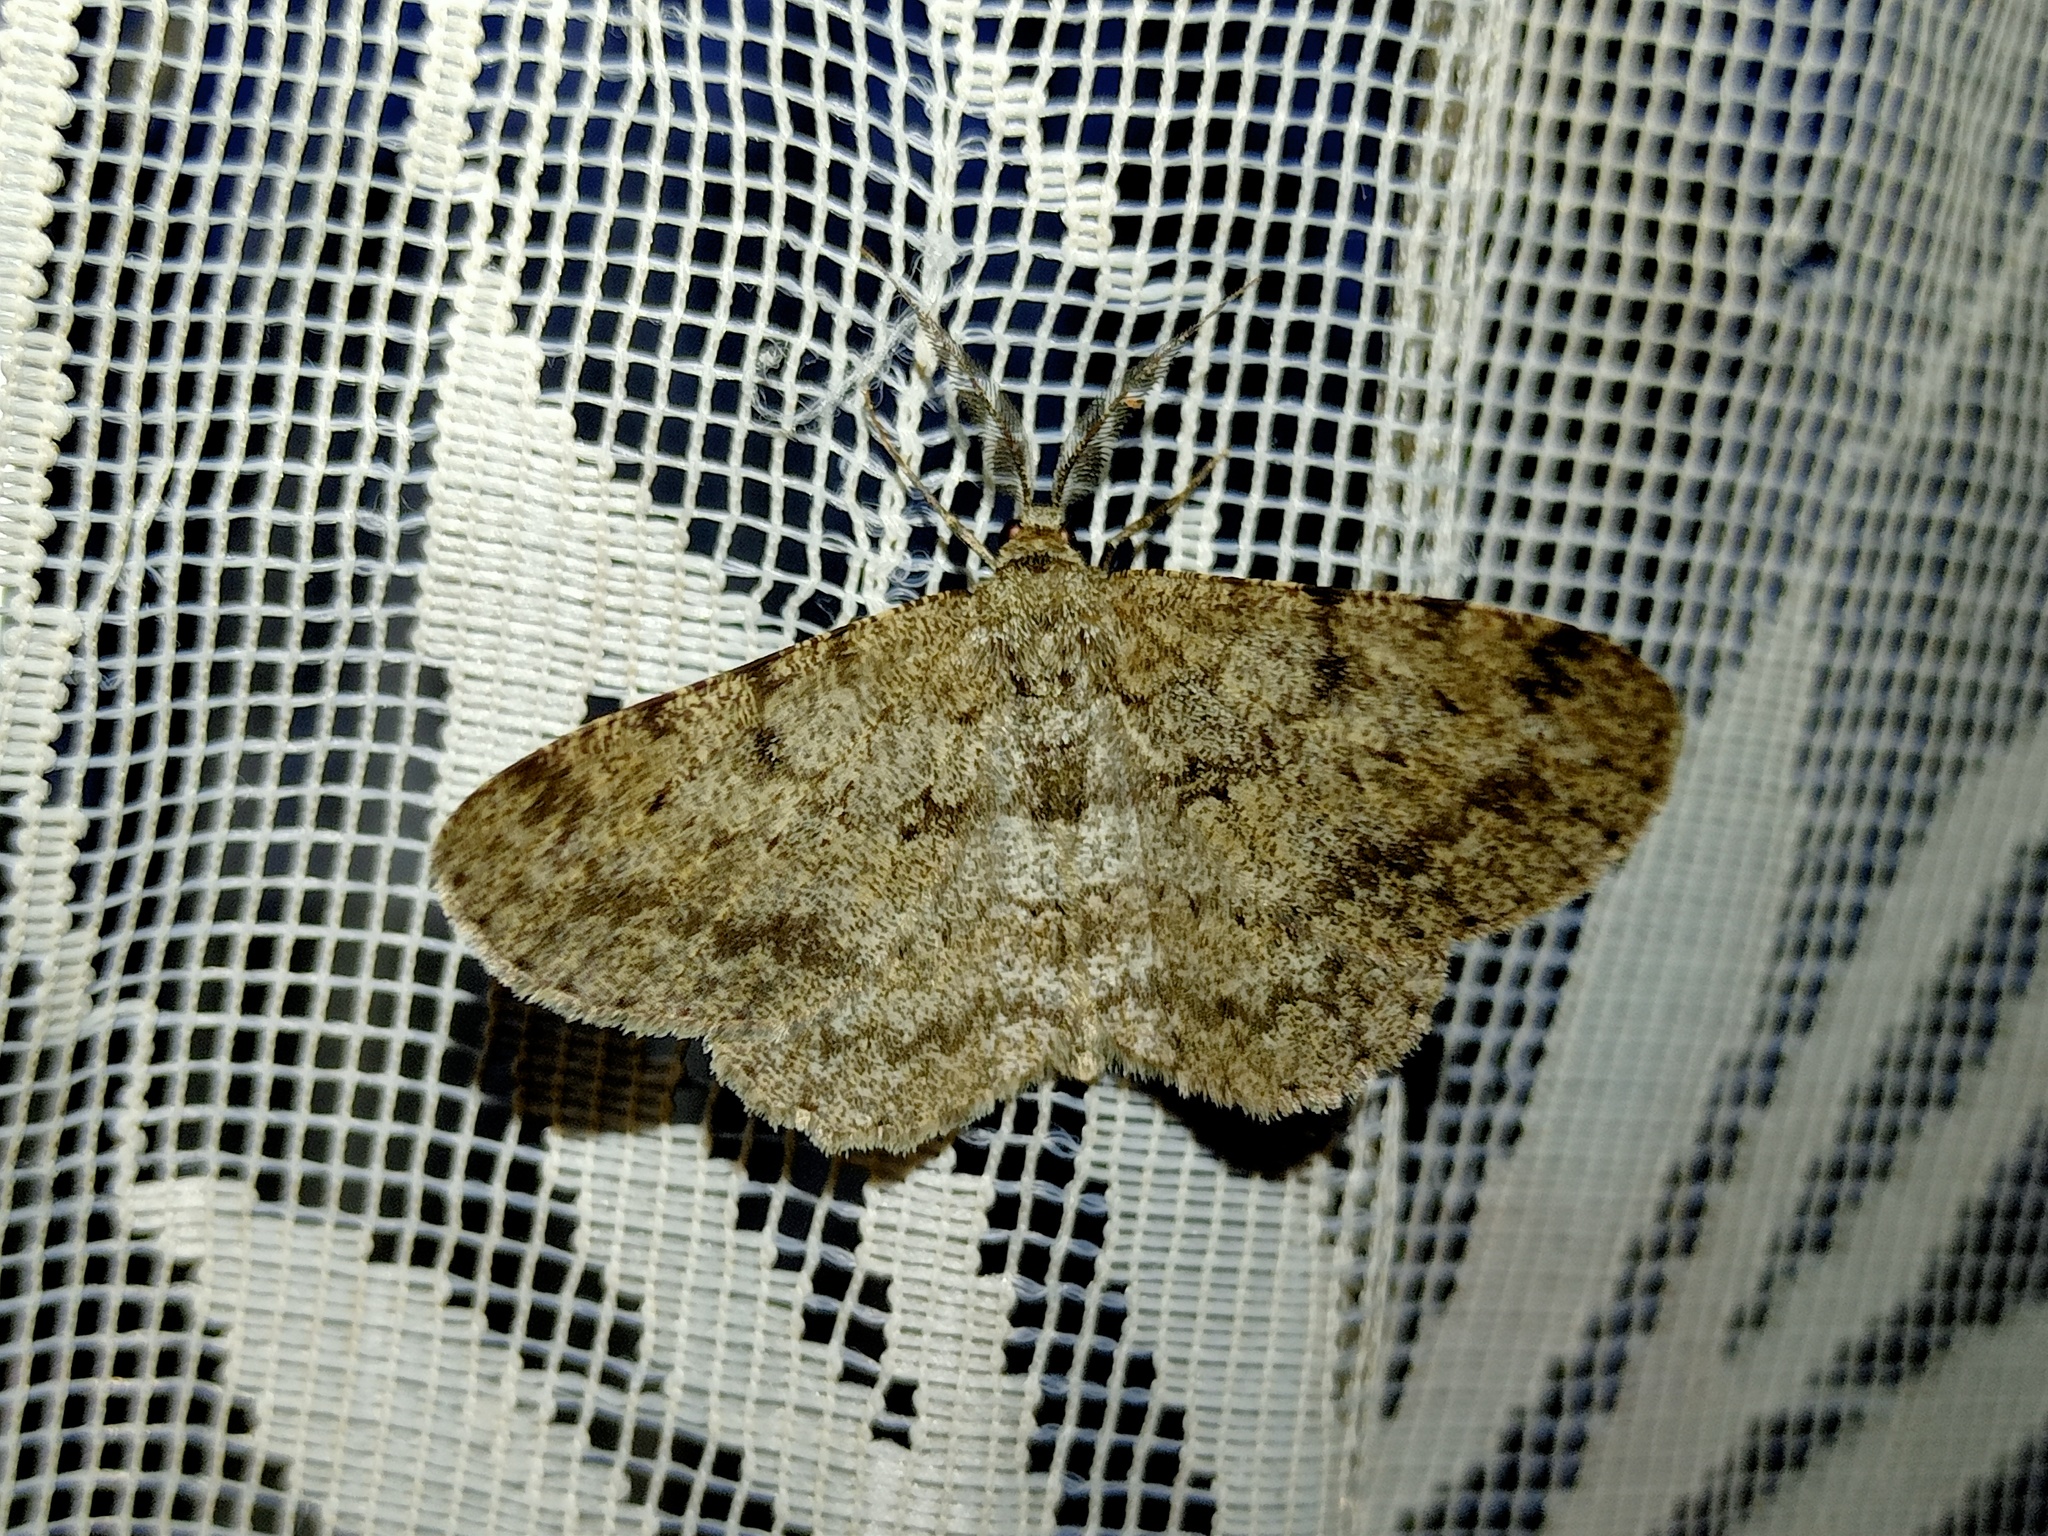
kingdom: Animalia
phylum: Arthropoda
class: Insecta
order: Lepidoptera
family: Geometridae
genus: Hypomecis
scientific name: Hypomecis punctinalis
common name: Pale oak beauty
